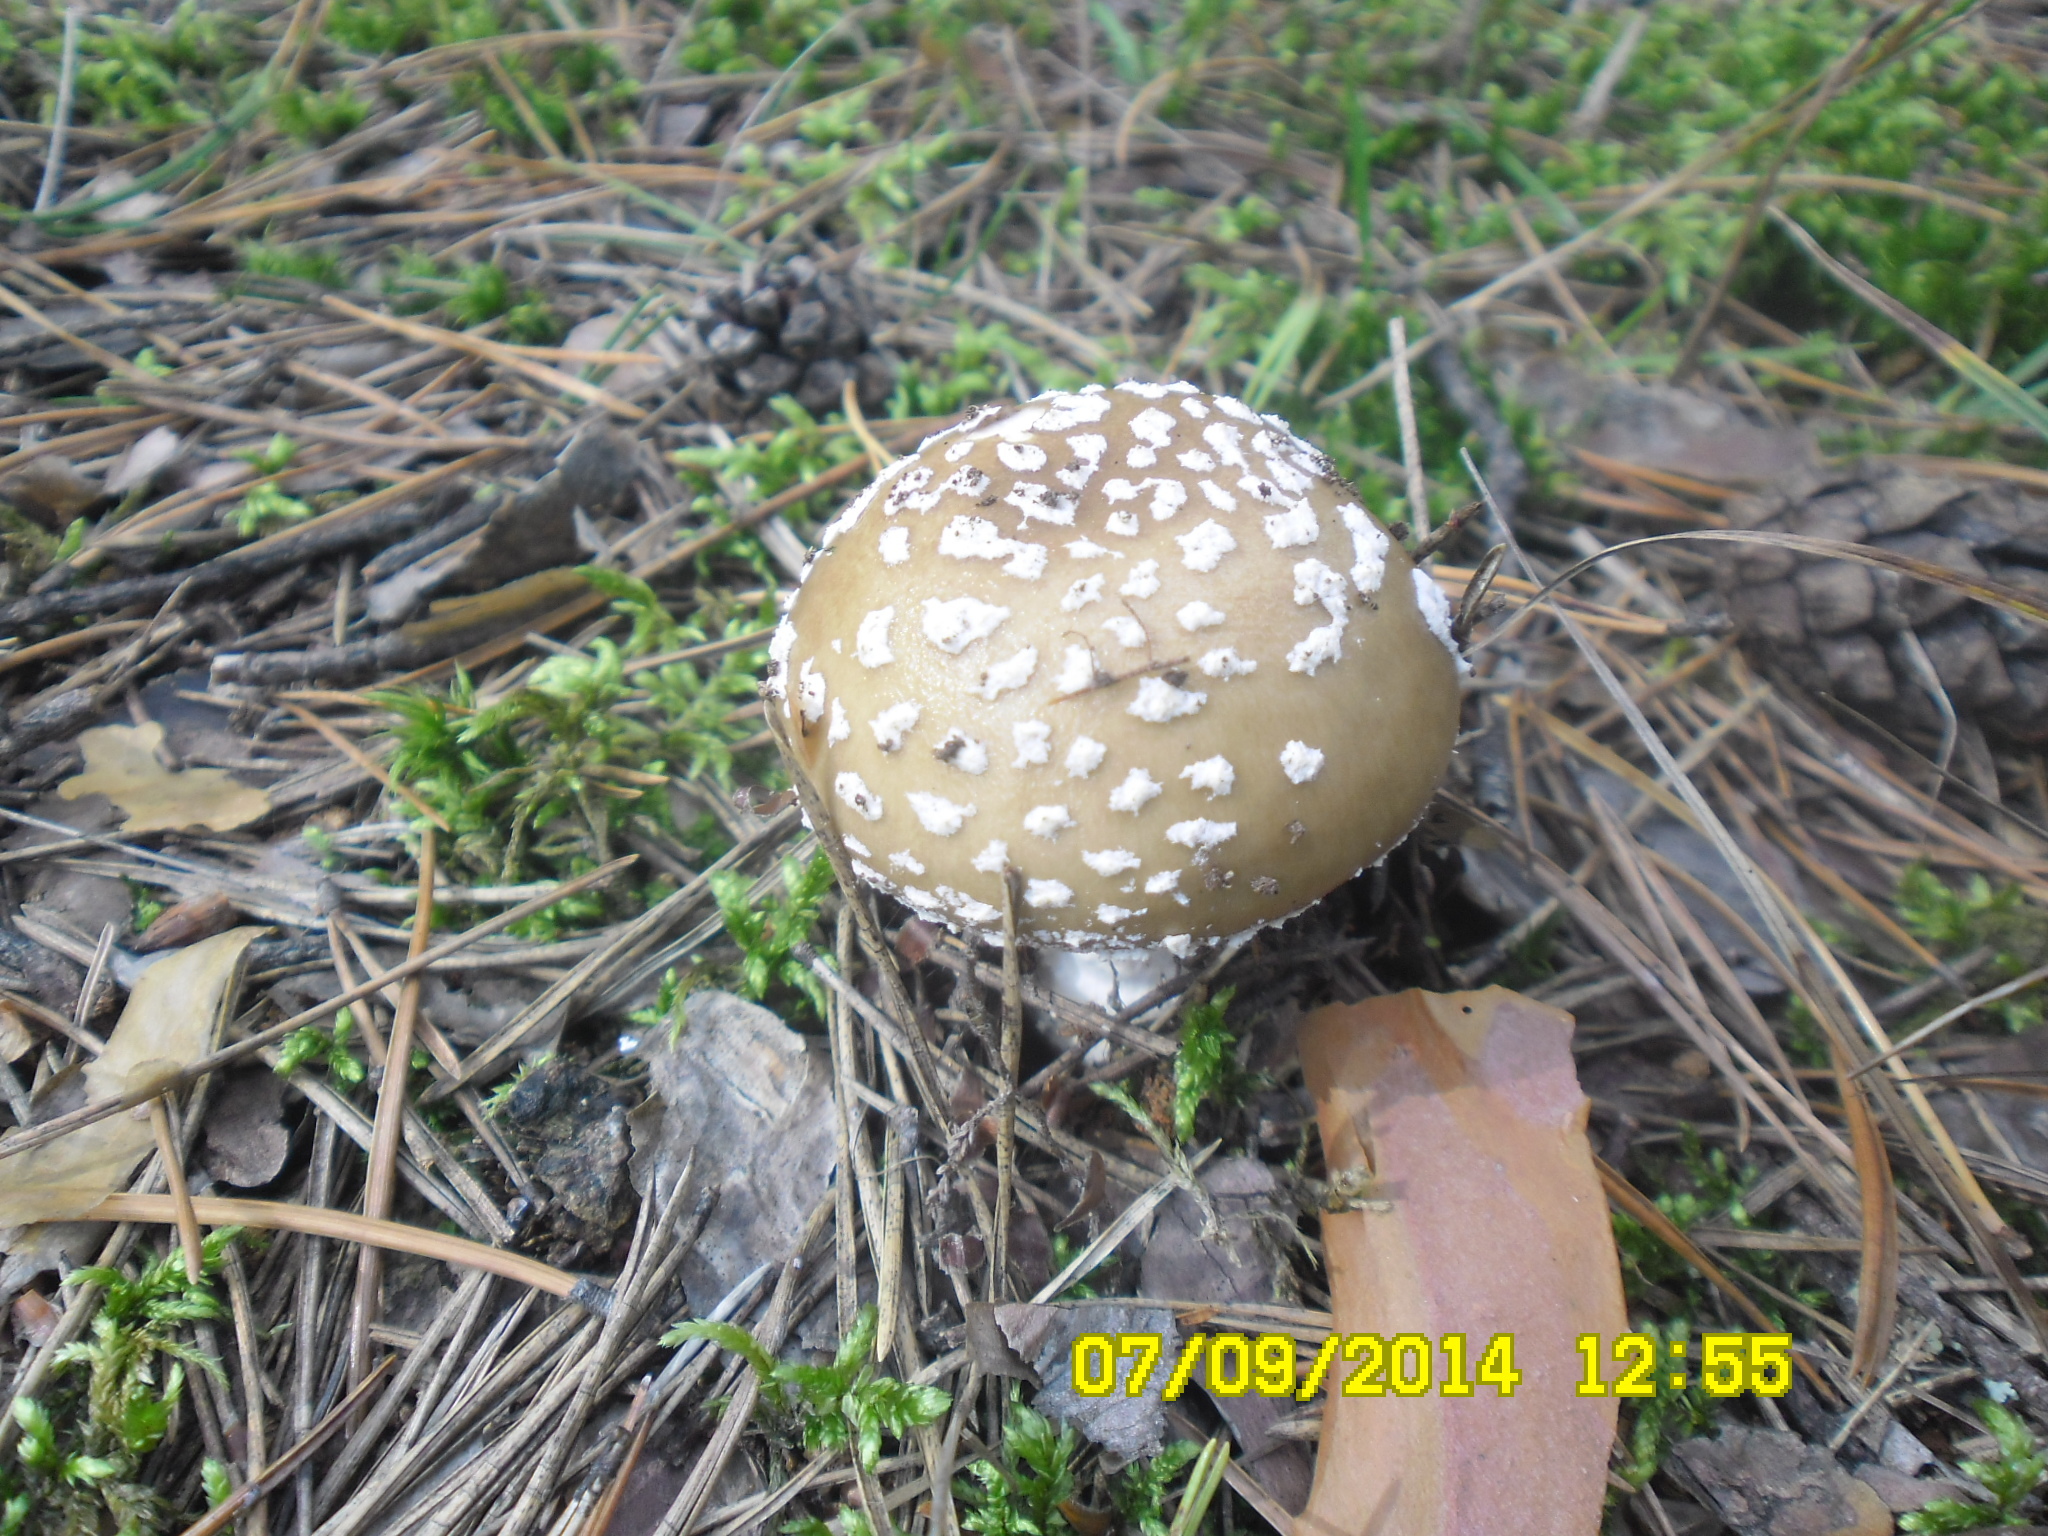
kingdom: Fungi
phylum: Basidiomycota
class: Agaricomycetes
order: Agaricales
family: Amanitaceae
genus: Amanita
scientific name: Amanita pantherina
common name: Panthercap
